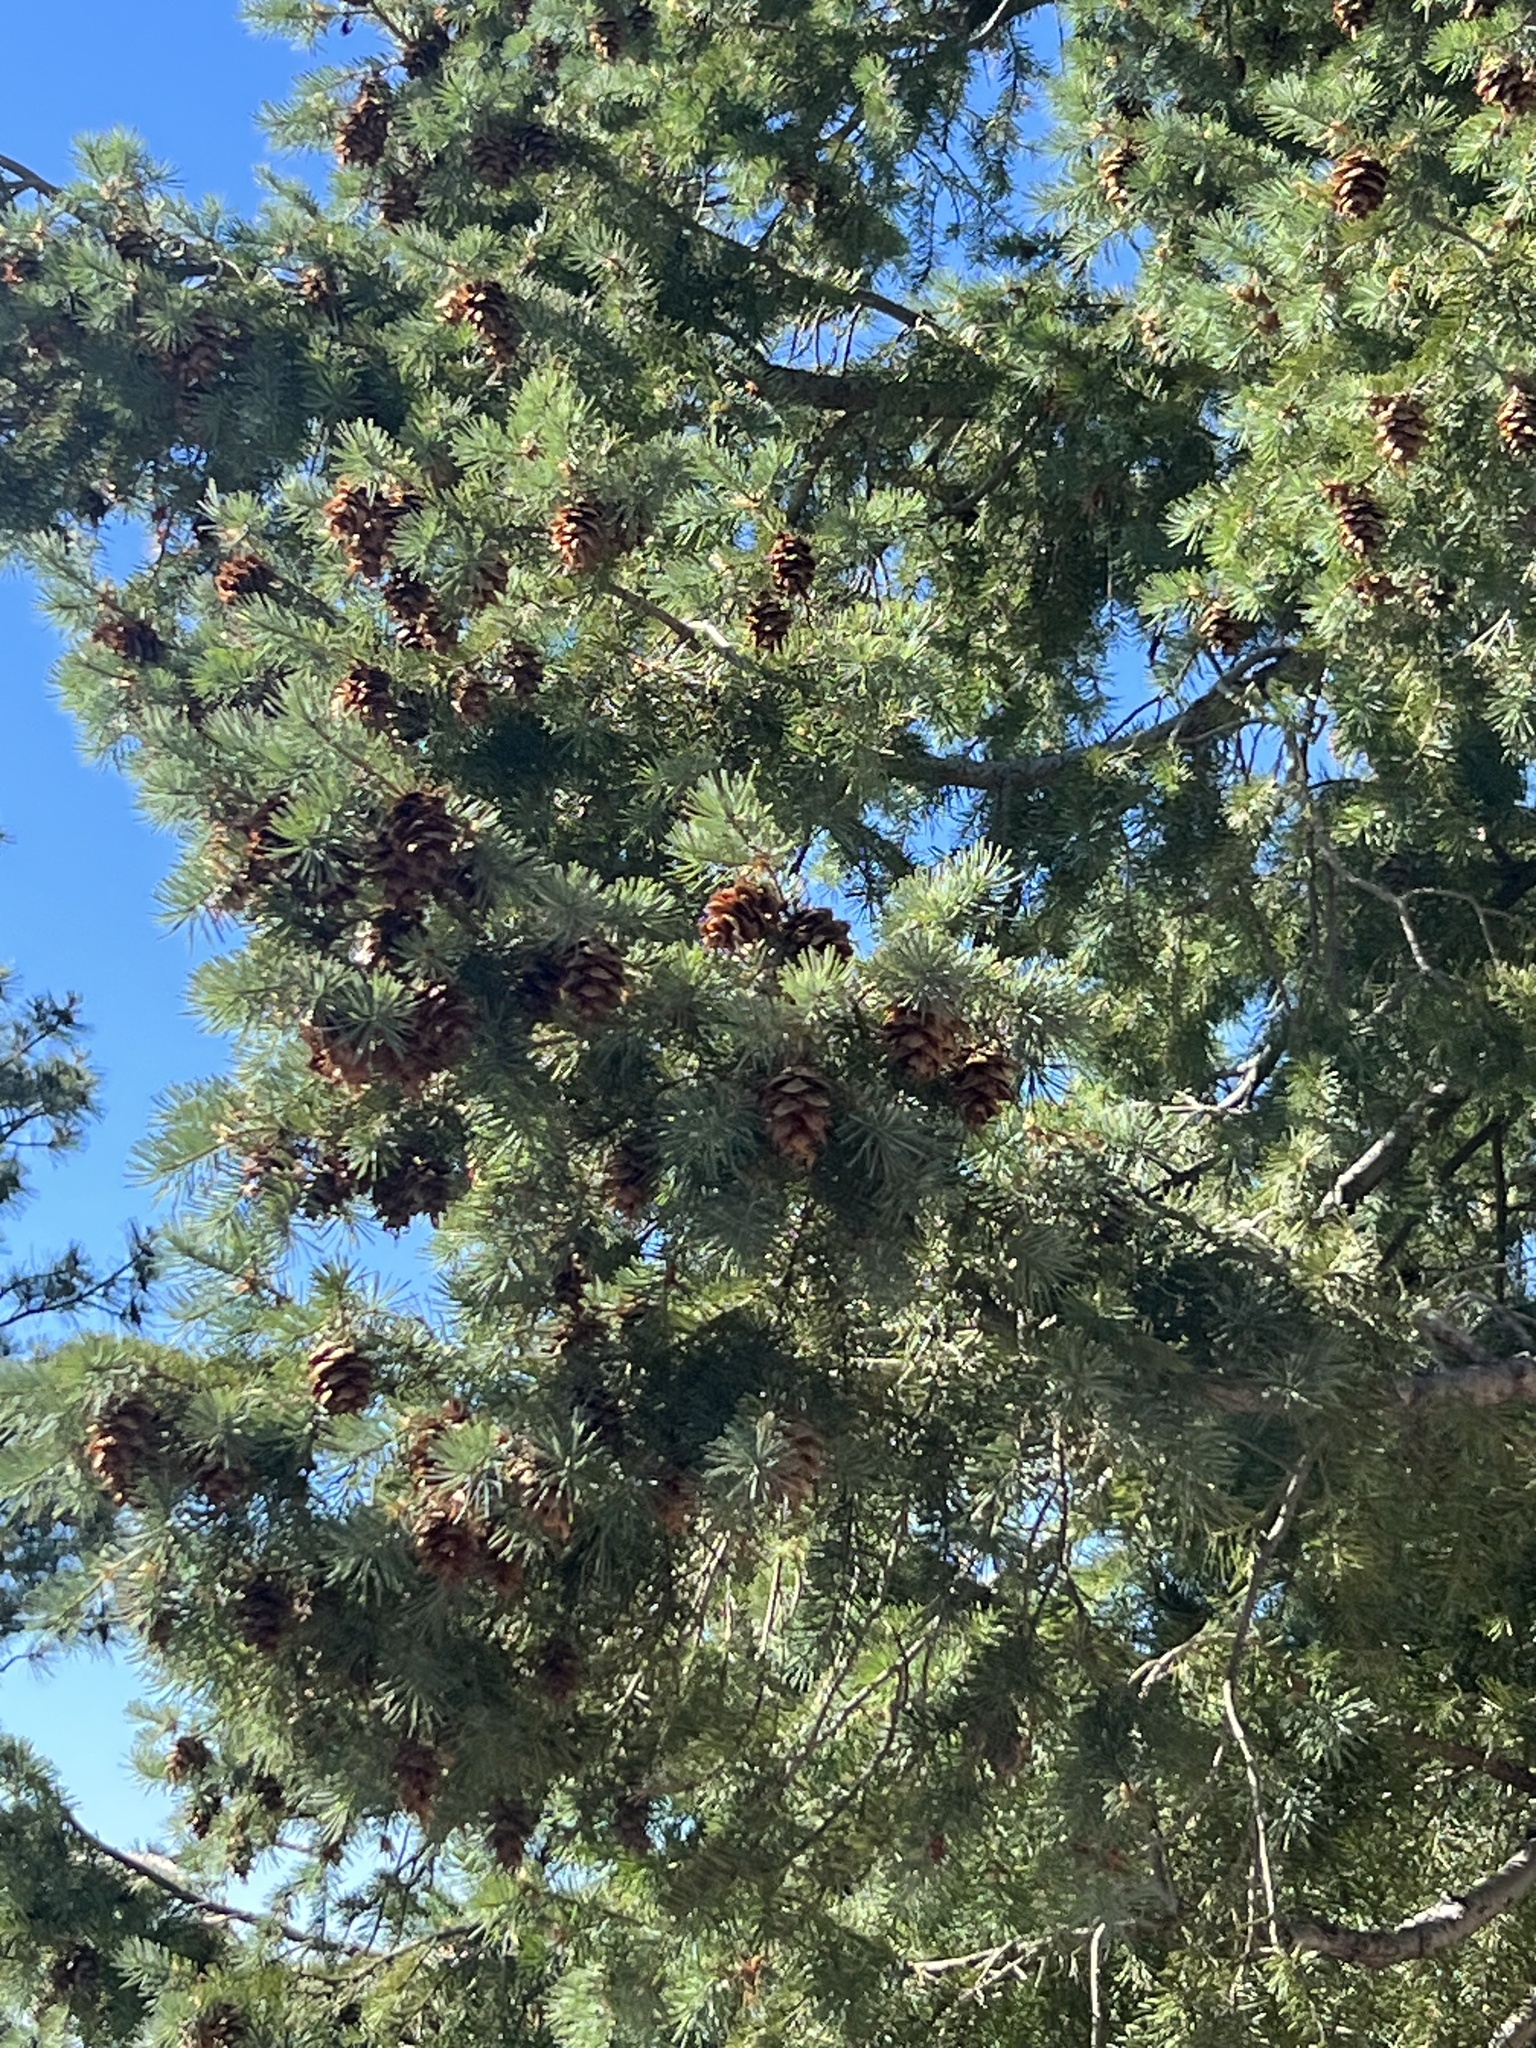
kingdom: Plantae
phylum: Tracheophyta
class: Pinopsida
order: Pinales
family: Pinaceae
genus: Pseudotsuga
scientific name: Pseudotsuga menziesii
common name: Douglas fir
